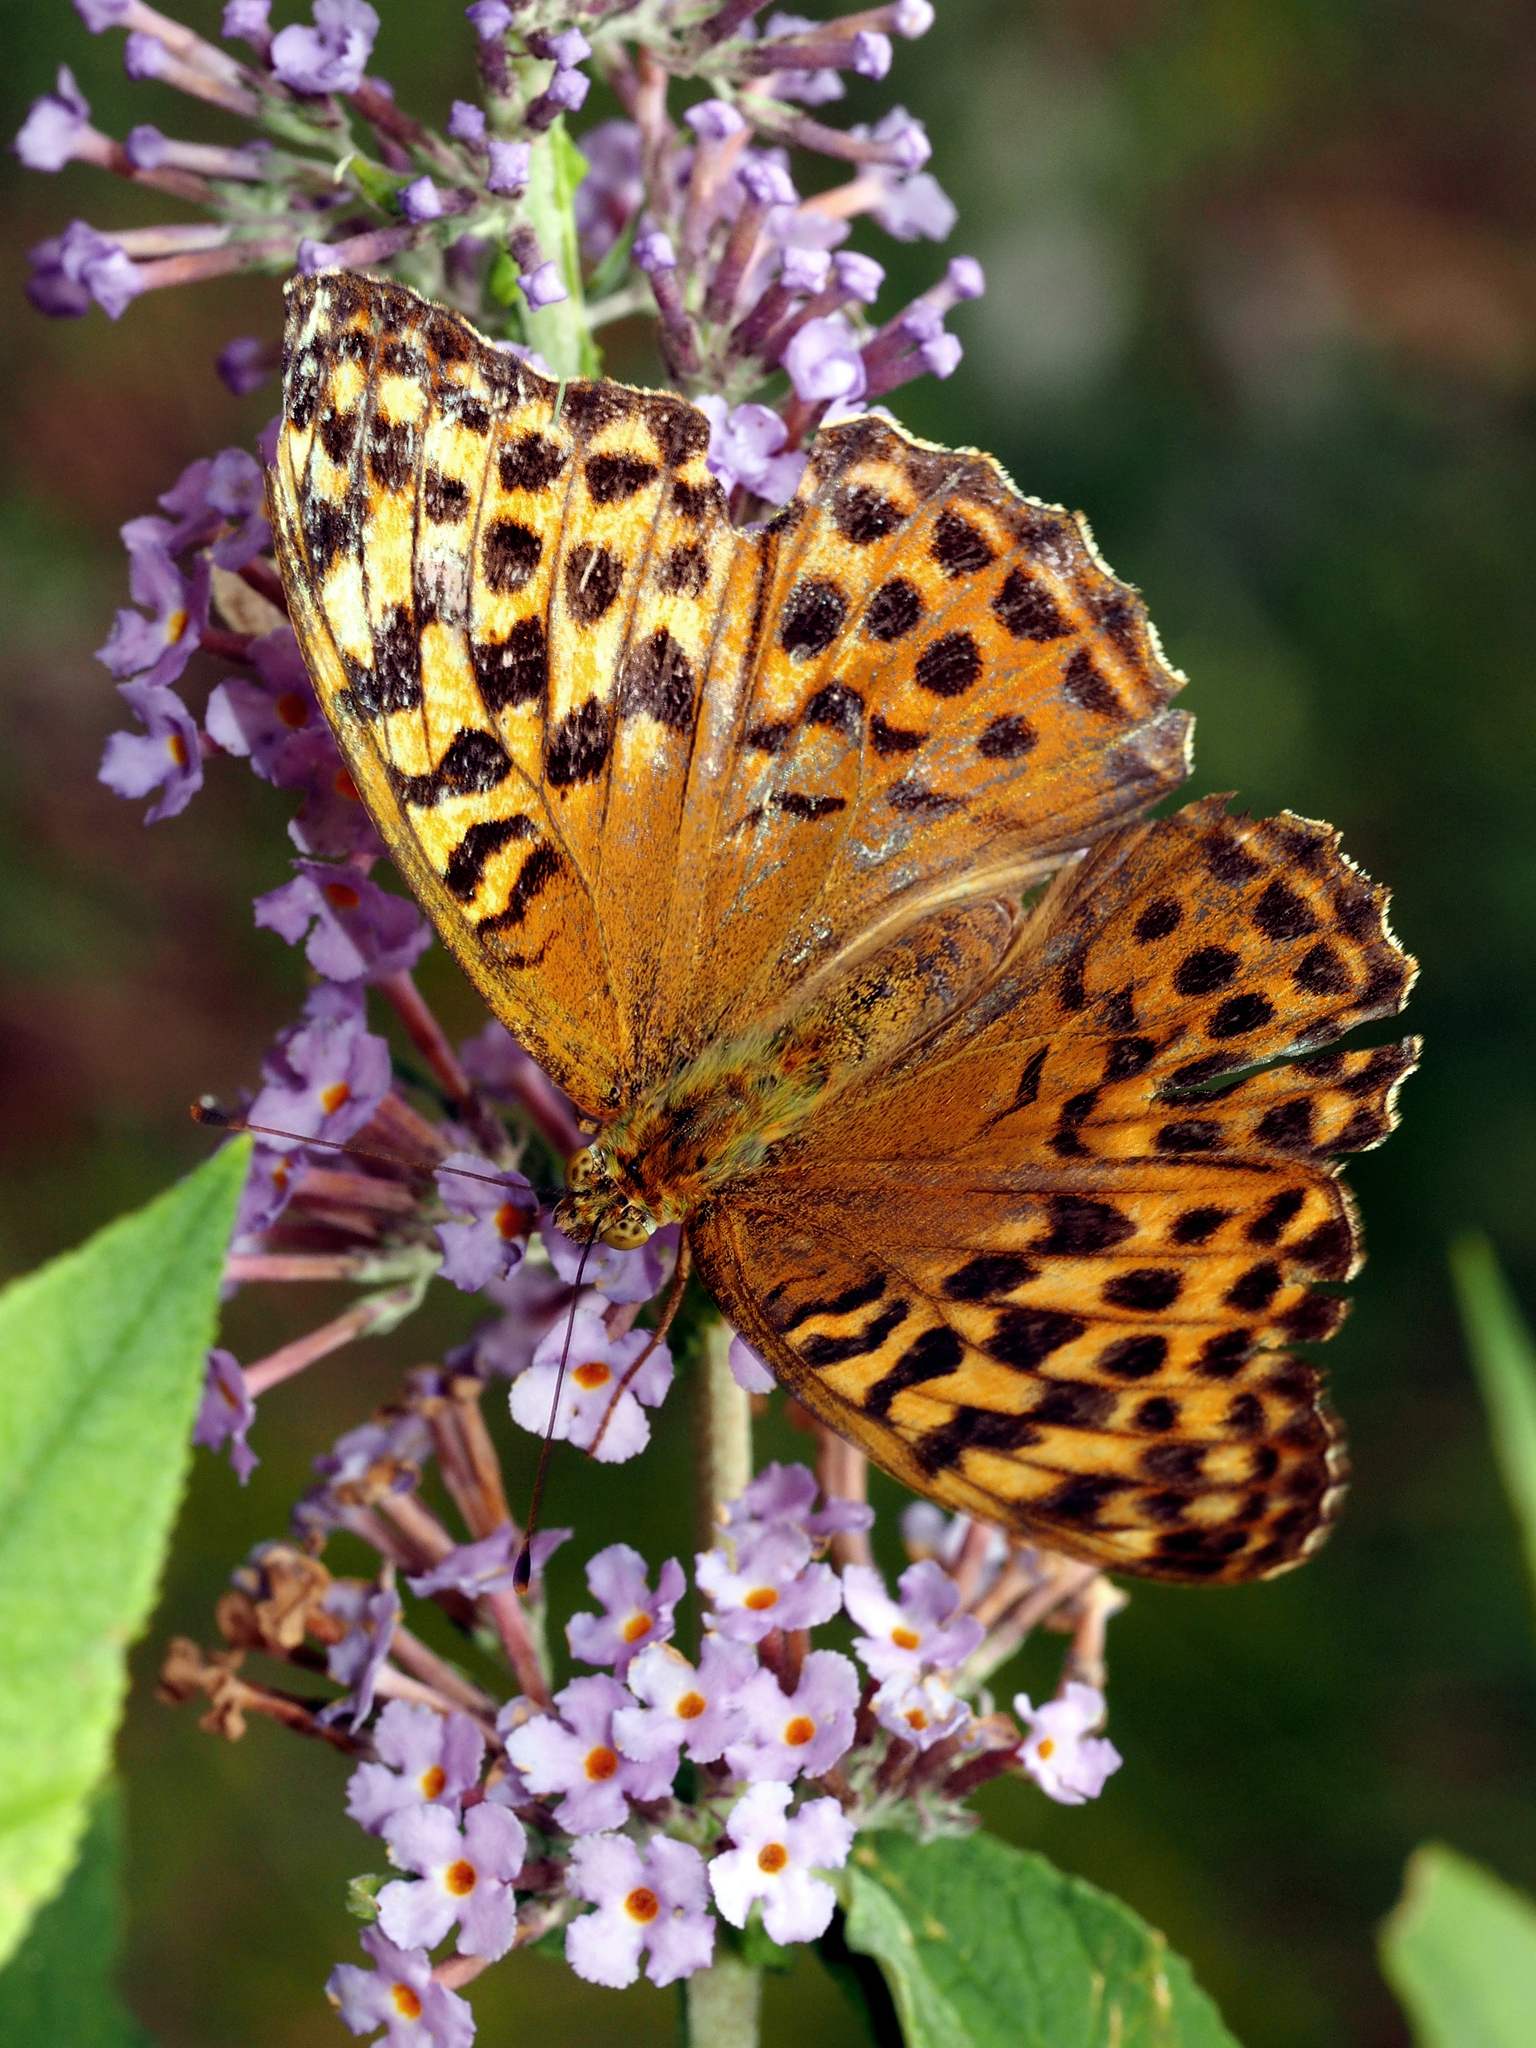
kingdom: Animalia
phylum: Arthropoda
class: Insecta
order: Lepidoptera
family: Nymphalidae
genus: Argynnis
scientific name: Argynnis paphia
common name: Silver-washed fritillary
